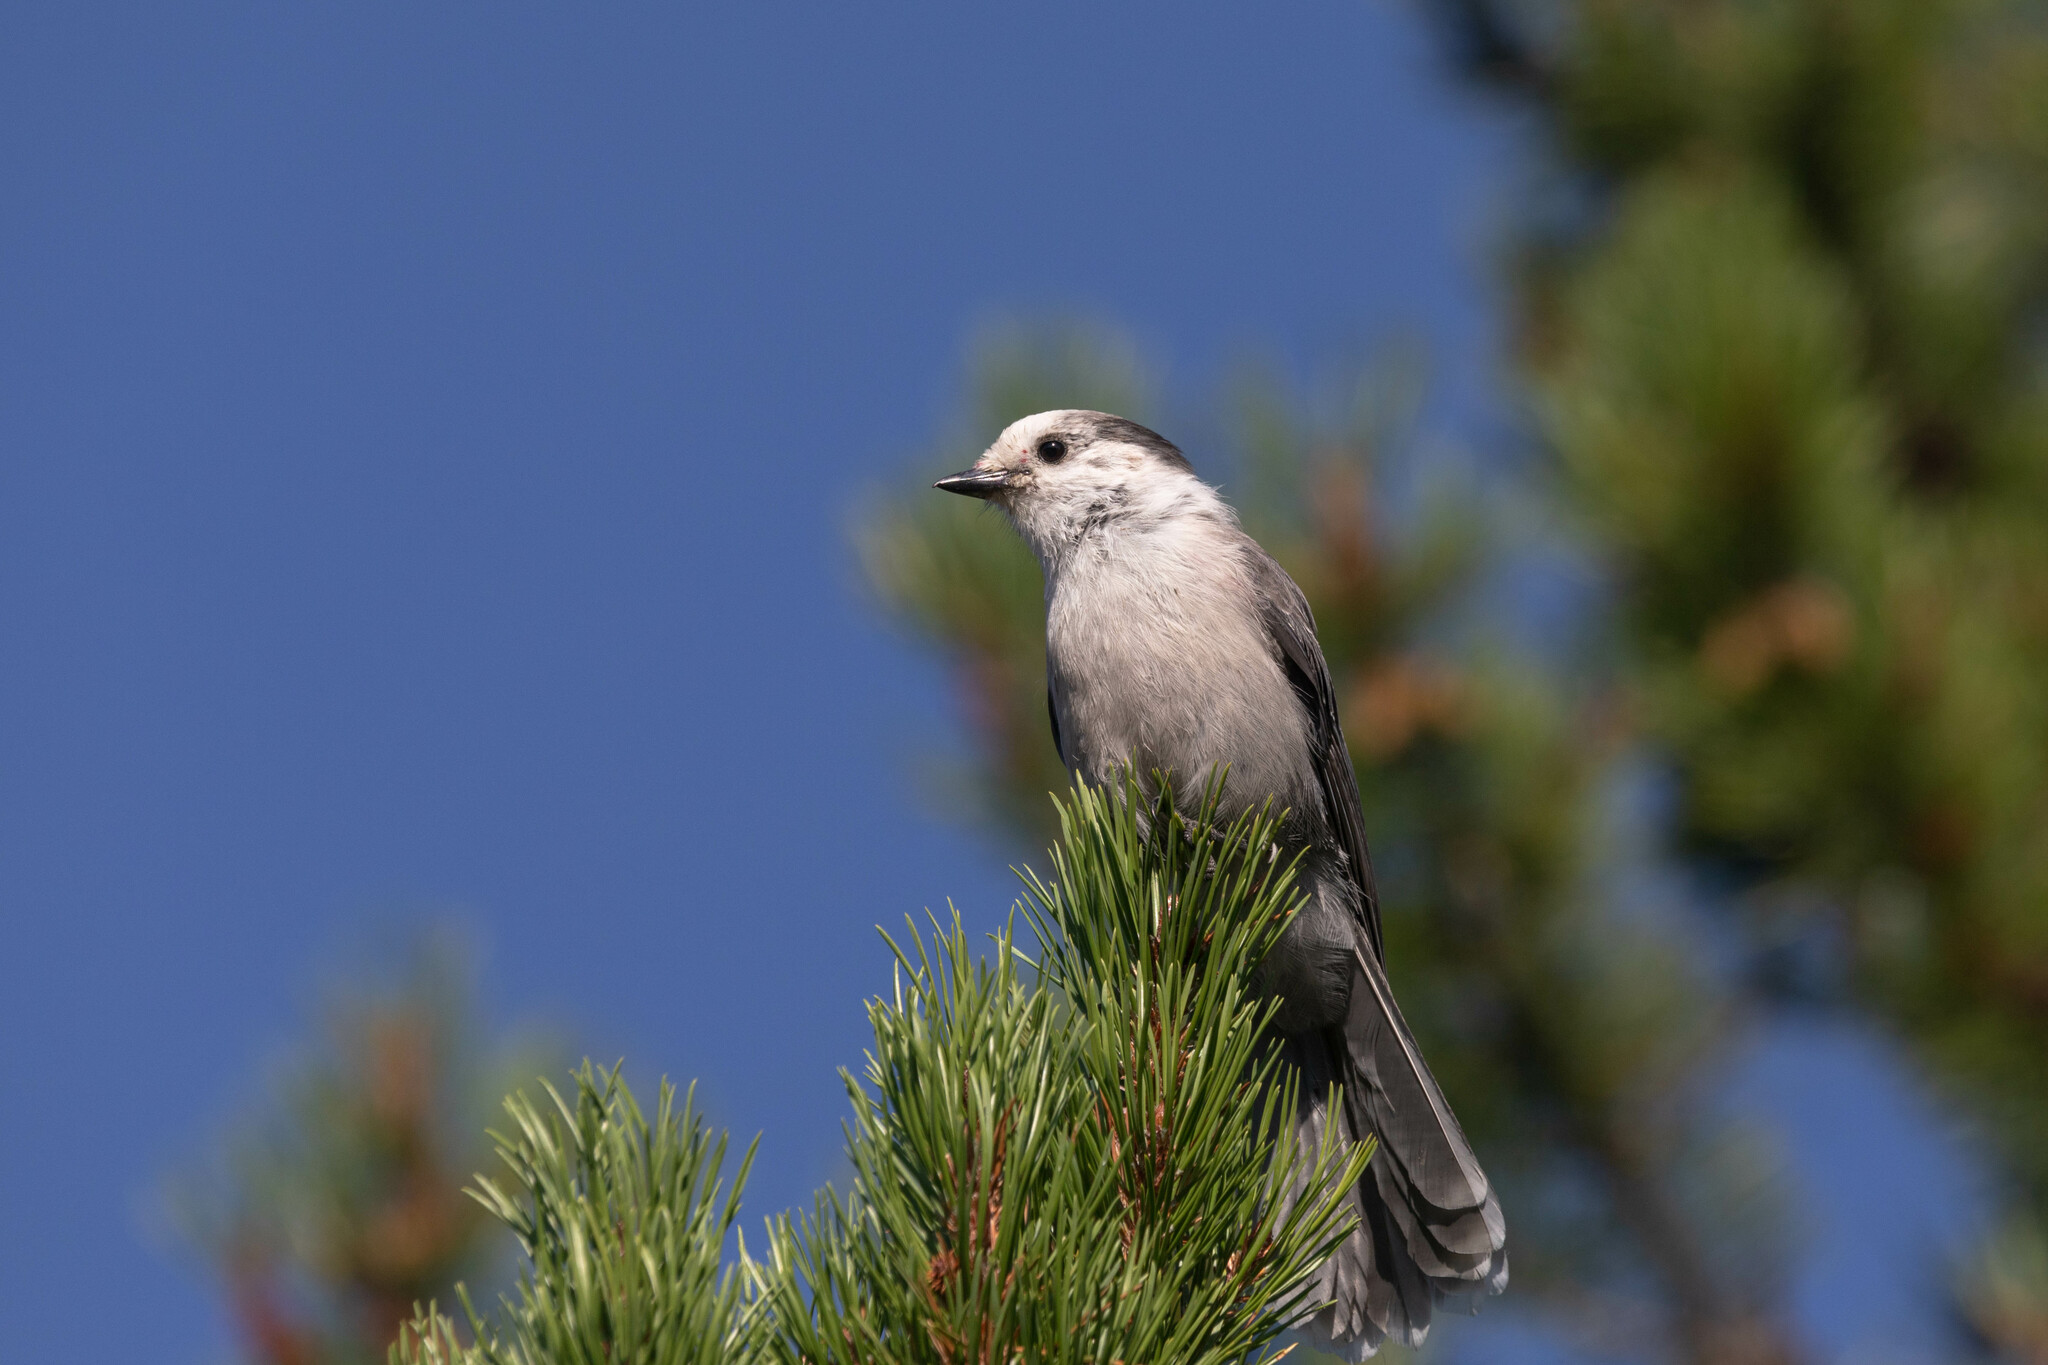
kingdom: Animalia
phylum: Chordata
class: Aves
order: Passeriformes
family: Corvidae
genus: Perisoreus
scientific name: Perisoreus canadensis
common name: Gray jay
